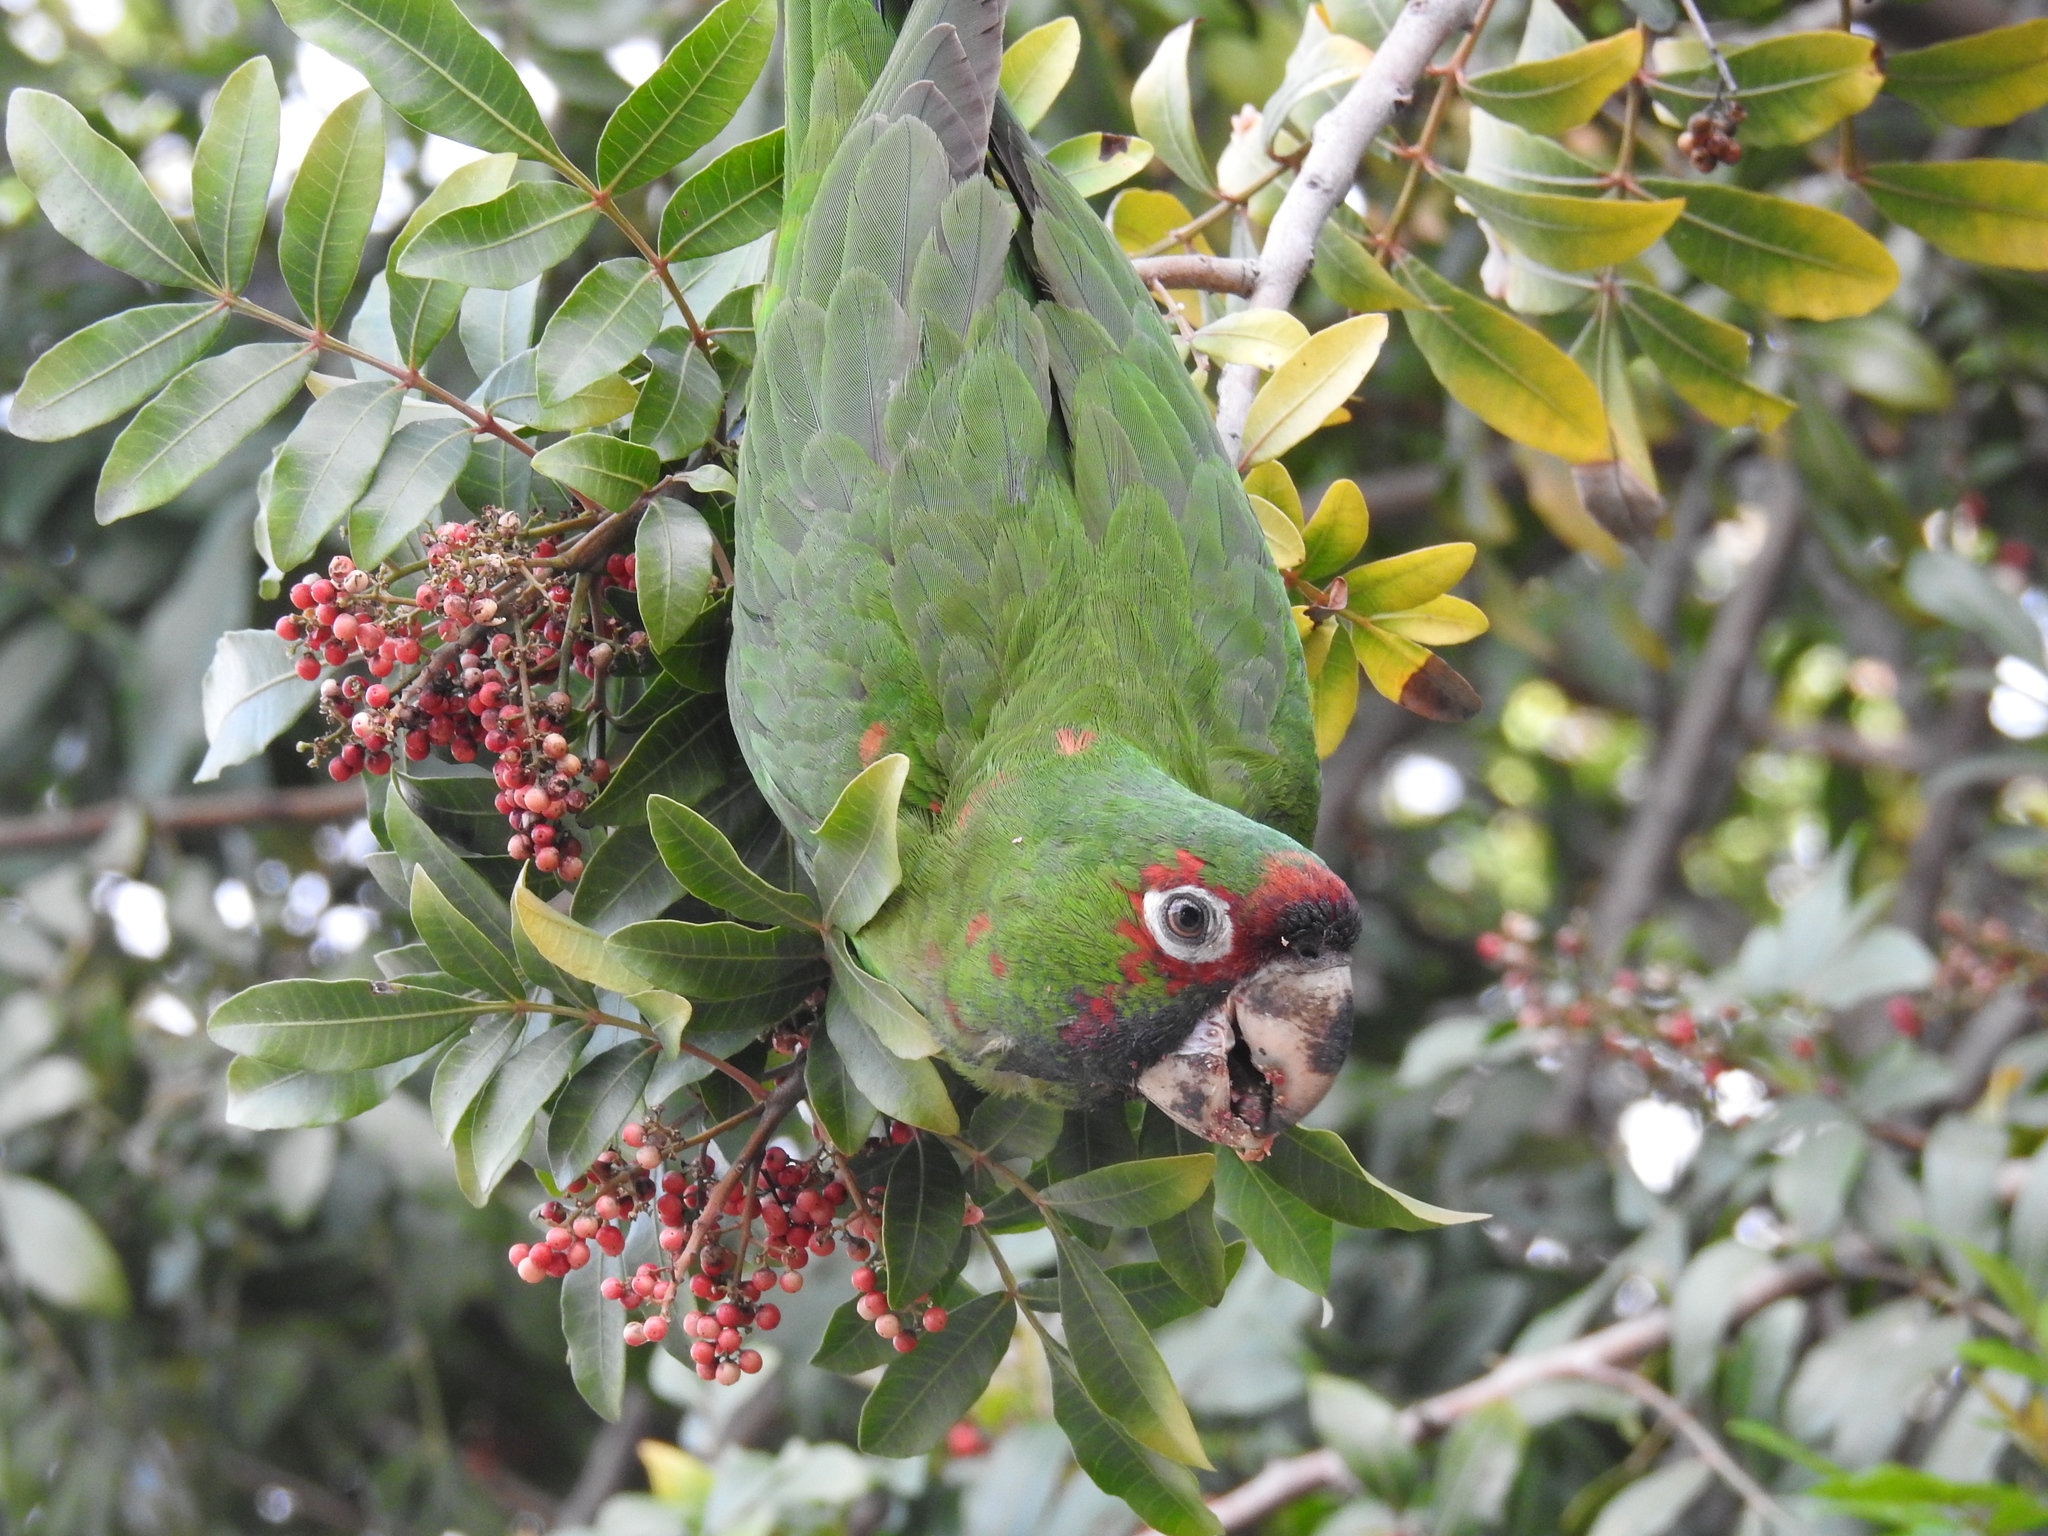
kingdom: Animalia
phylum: Chordata
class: Aves
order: Psittaciformes
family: Psittacidae
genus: Aratinga
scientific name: Aratinga mitrata
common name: Mitred parakeet
